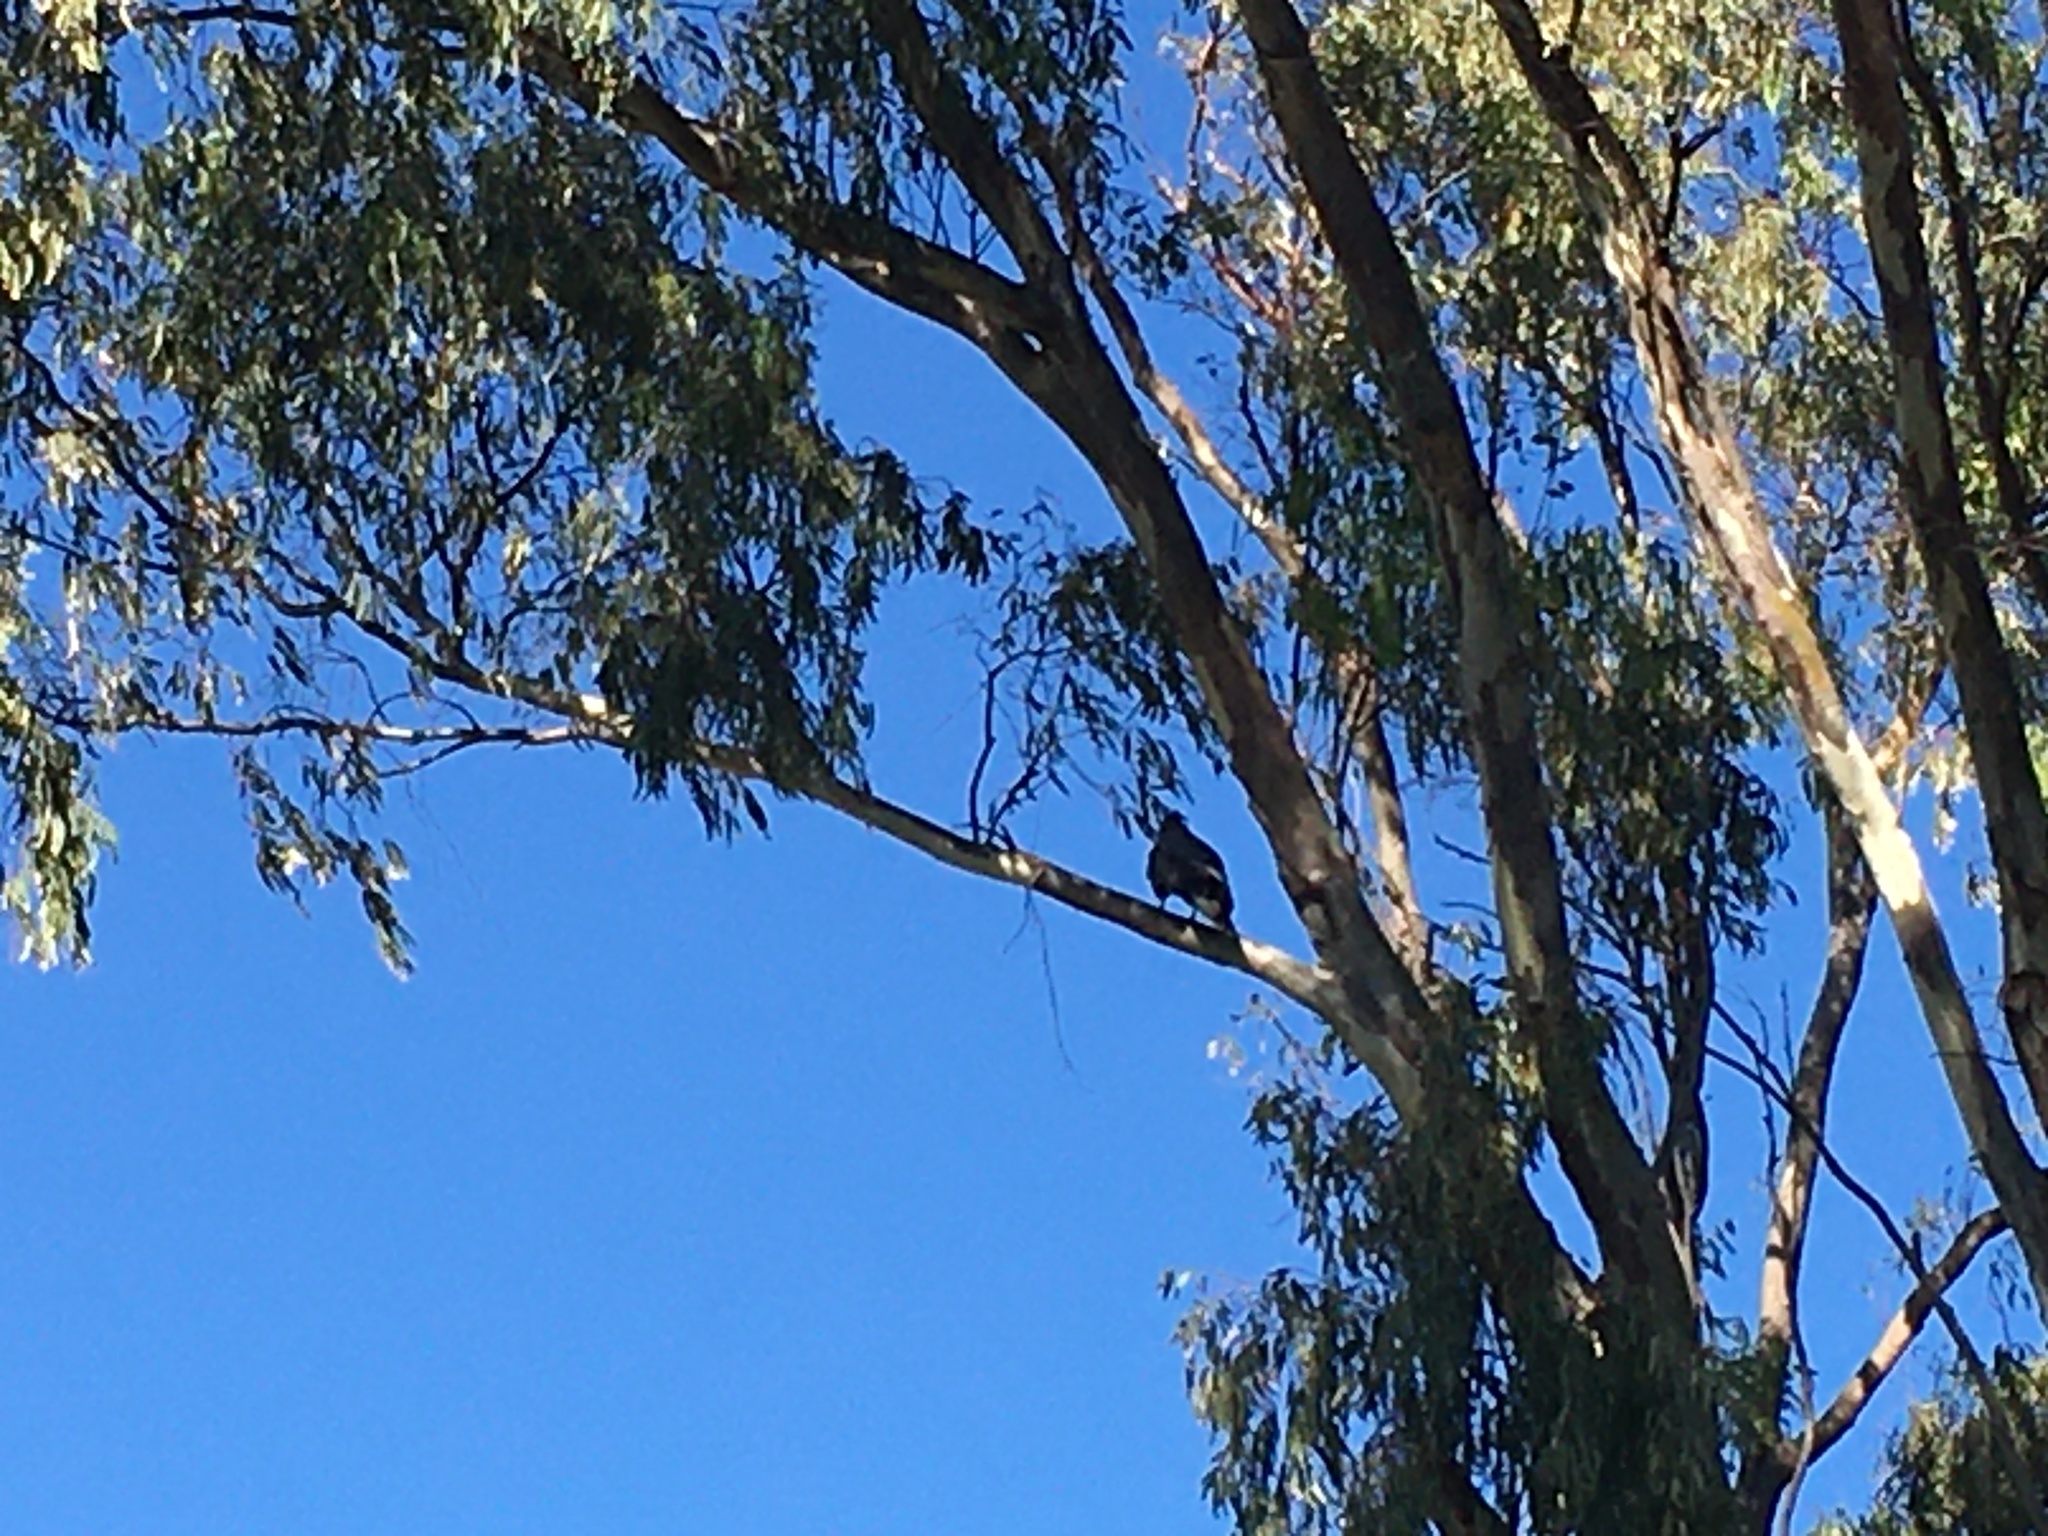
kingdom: Animalia
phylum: Chordata
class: Aves
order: Accipitriformes
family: Accipitridae
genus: Polyboroides
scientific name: Polyboroides typus
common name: African harrier-hawk
